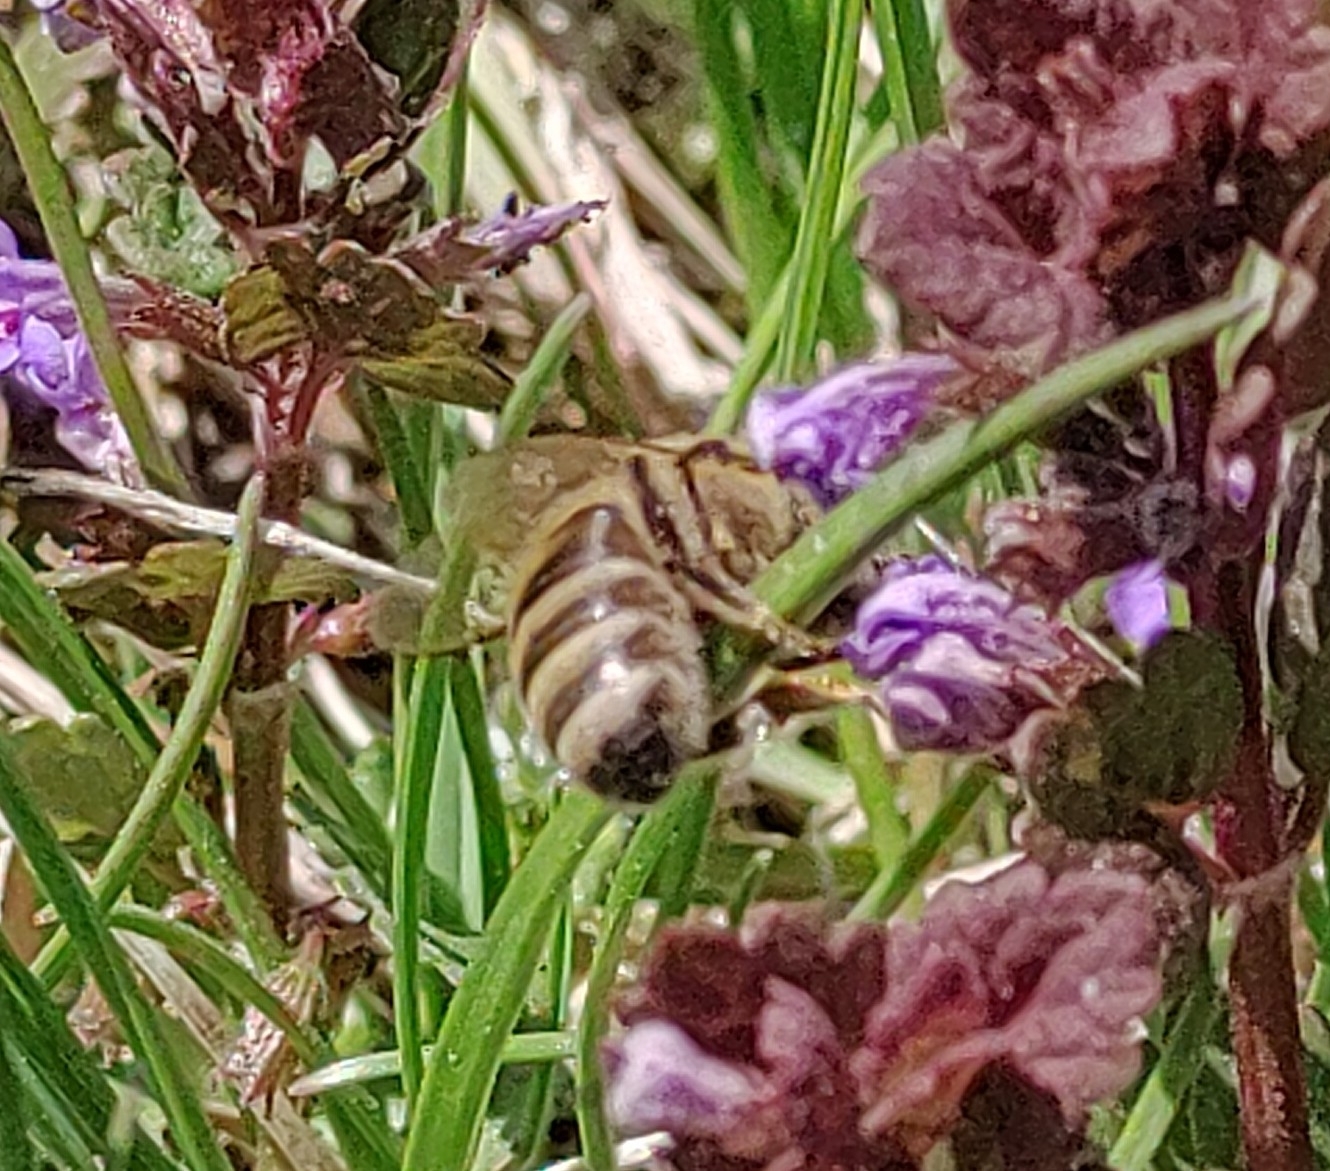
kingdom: Animalia
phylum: Arthropoda
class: Insecta
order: Hymenoptera
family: Apidae
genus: Apis
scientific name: Apis mellifera
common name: Honey bee
